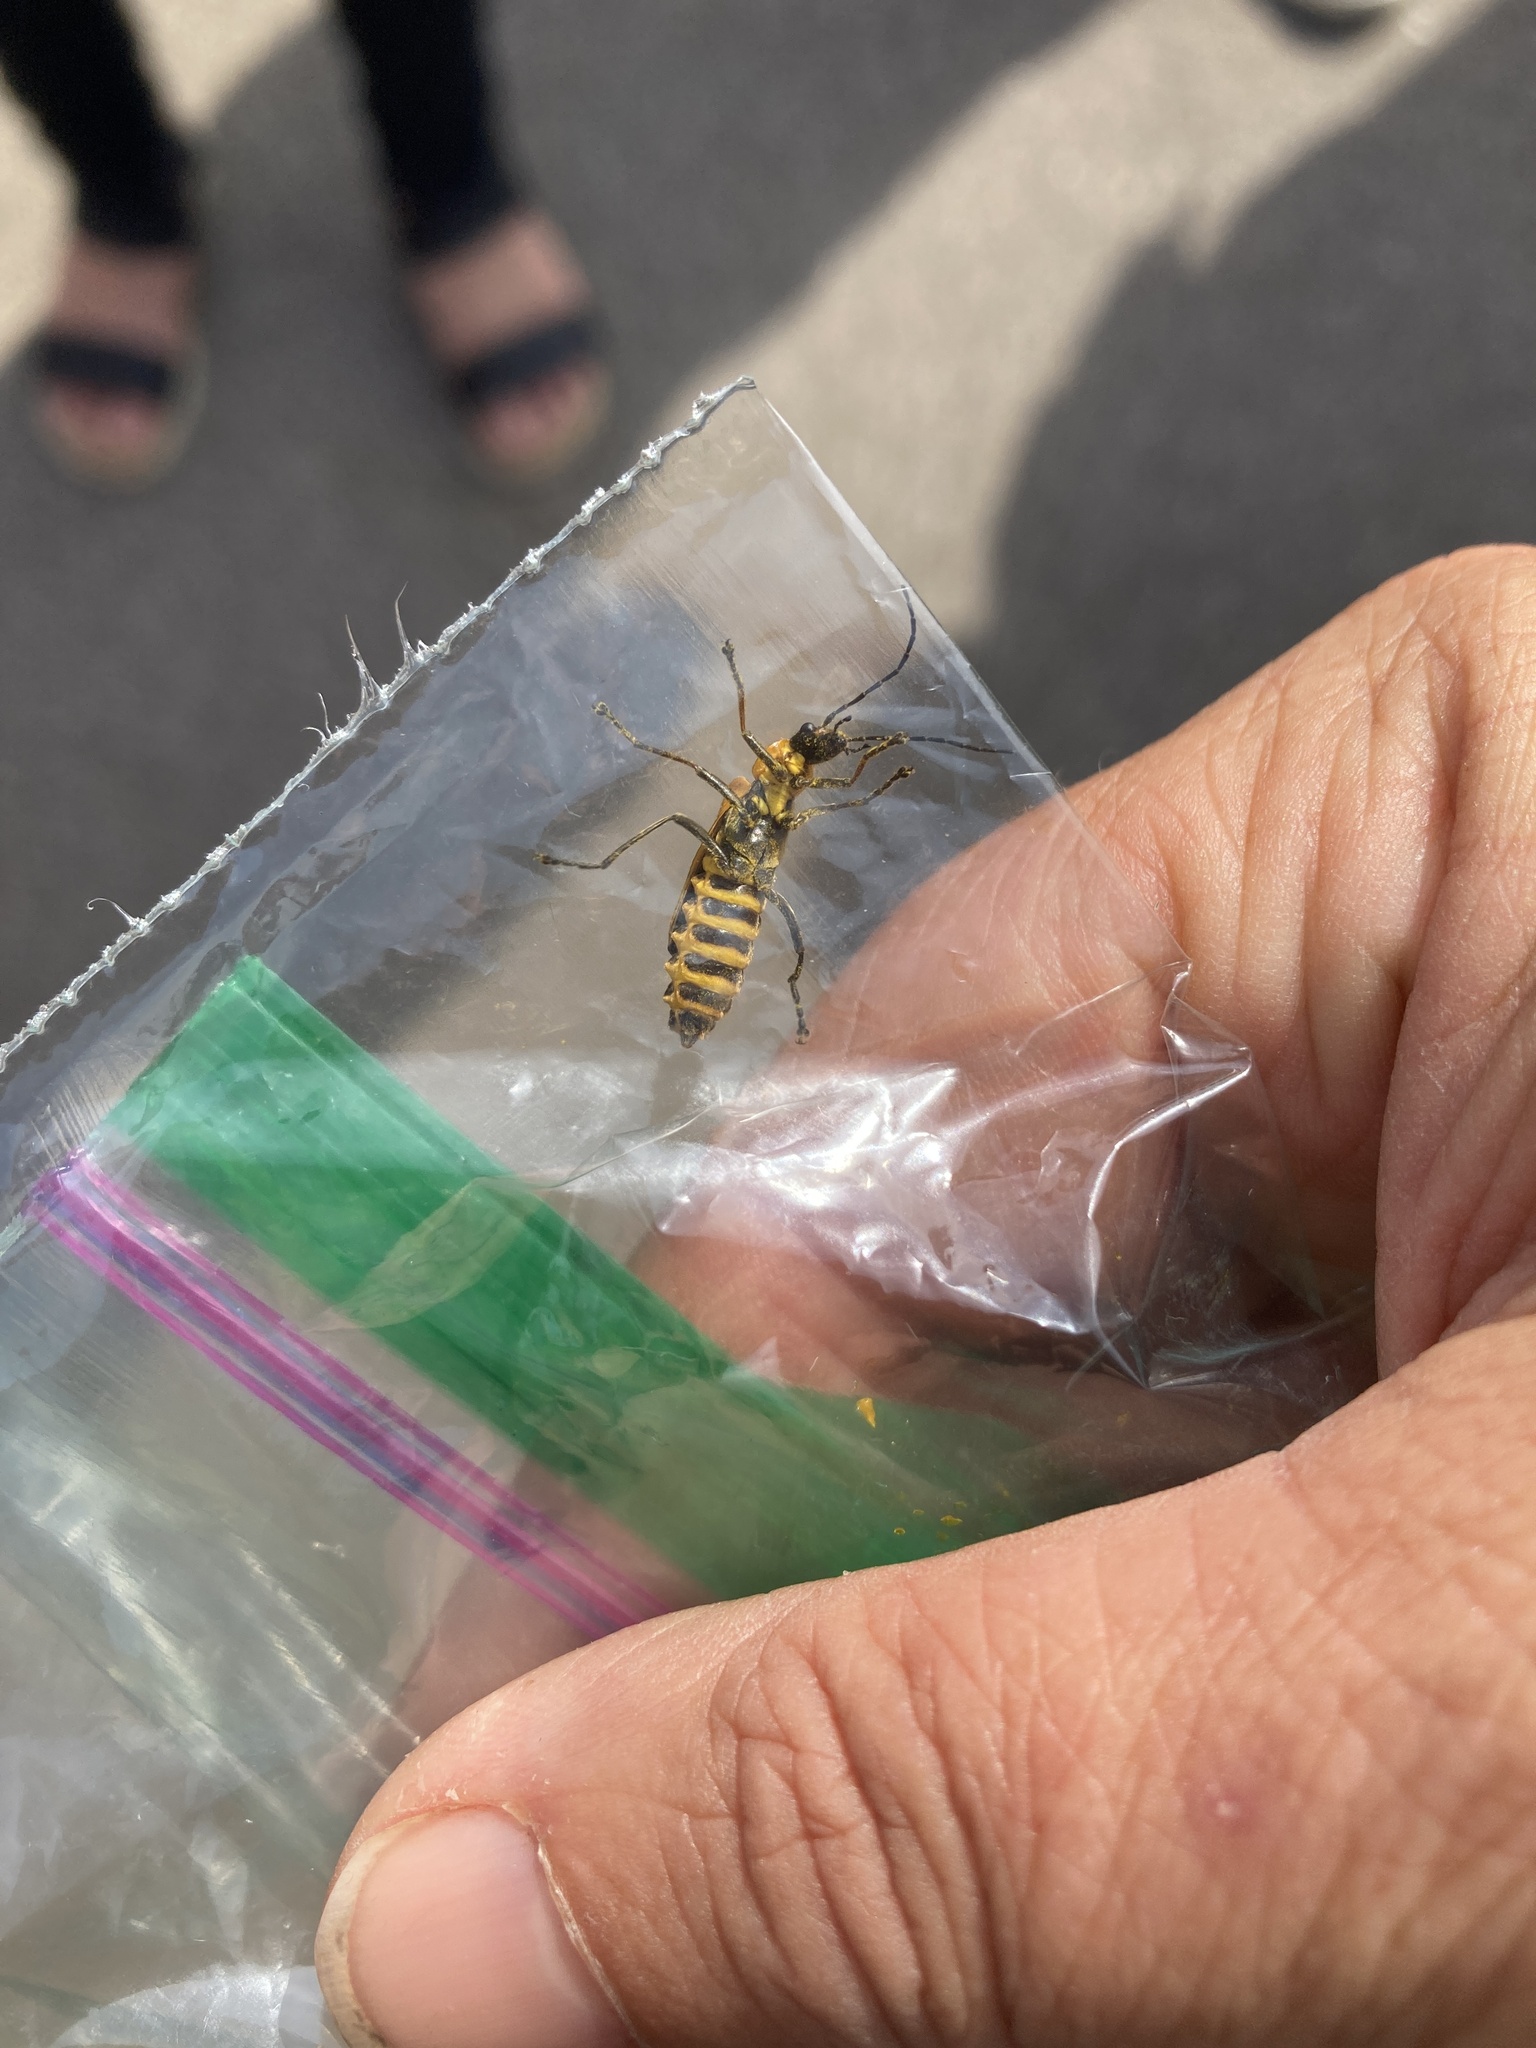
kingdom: Animalia
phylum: Arthropoda
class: Insecta
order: Coleoptera
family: Cantharidae
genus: Chauliognathus
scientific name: Chauliognathus pensylvanicus
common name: Goldenrod soldier beetle
